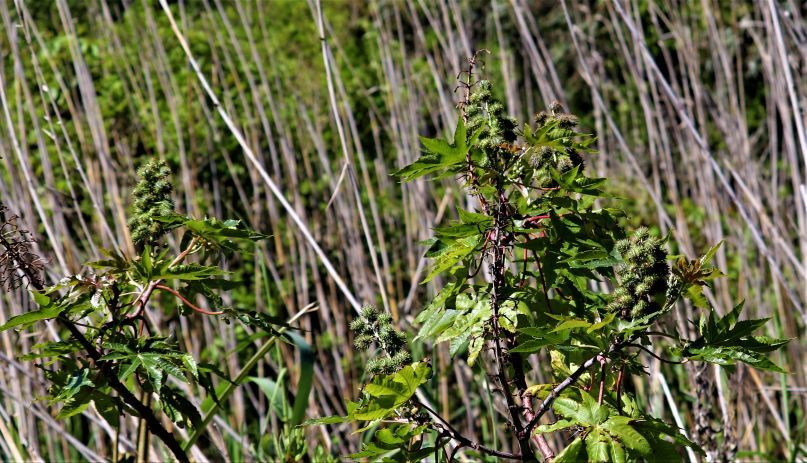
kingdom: Plantae
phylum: Tracheophyta
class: Magnoliopsida
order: Malpighiales
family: Euphorbiaceae
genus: Ricinus
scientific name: Ricinus communis
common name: Castor-oil-plant
